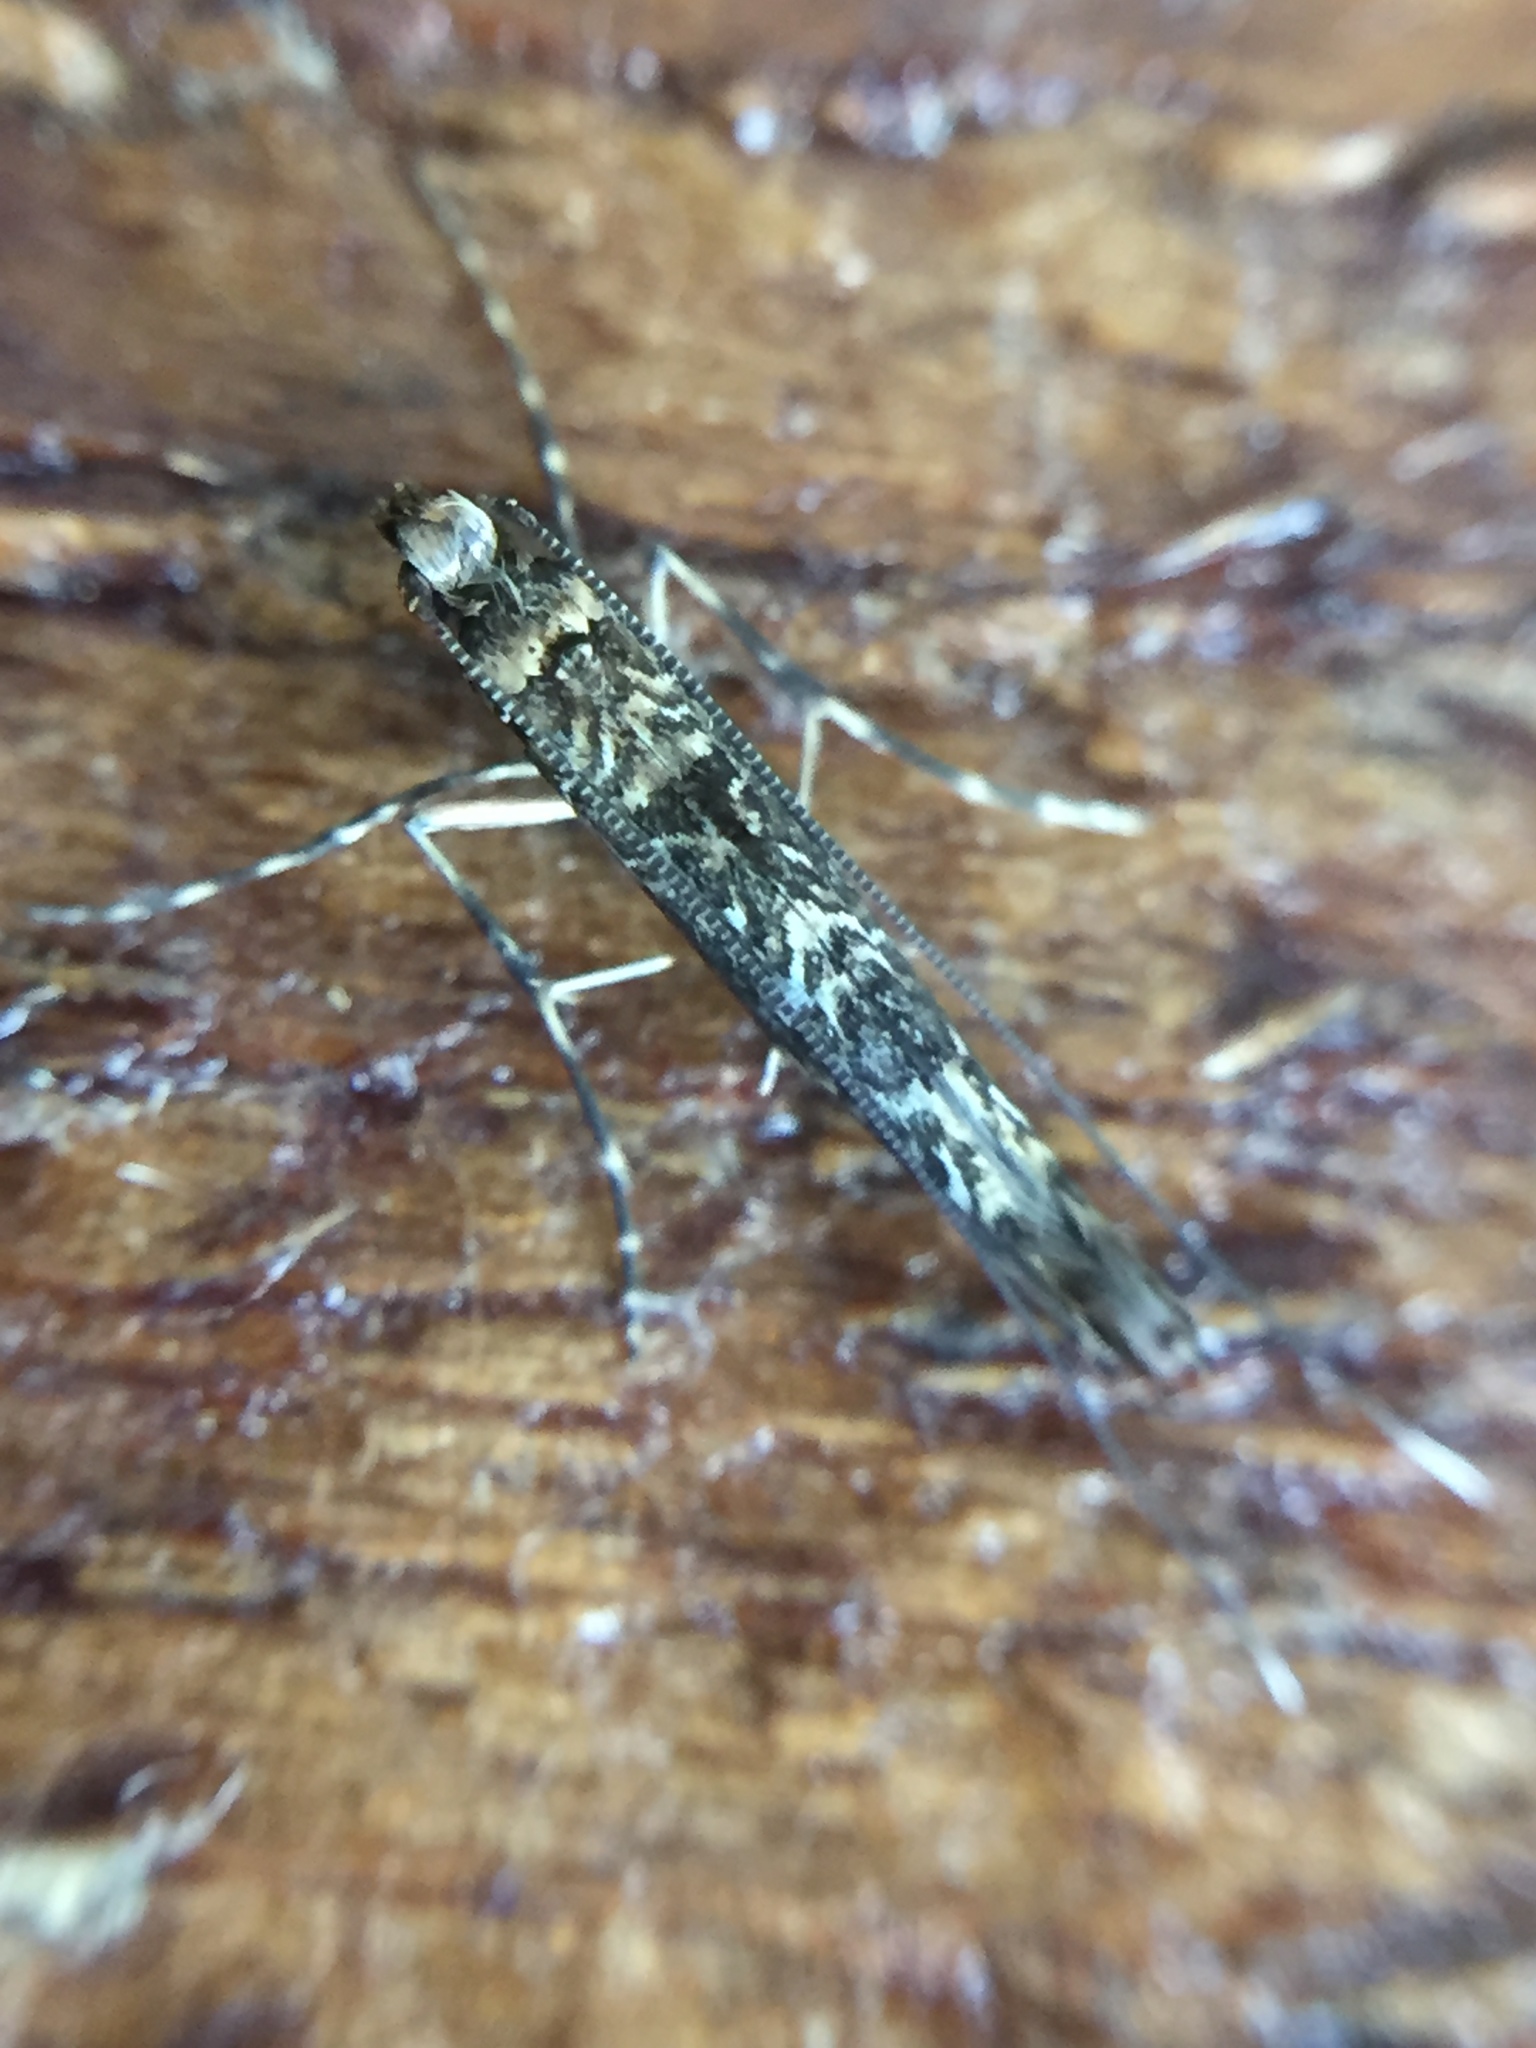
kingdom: Animalia
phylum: Arthropoda
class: Insecta
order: Lepidoptera
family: Gracillariidae
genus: Conopomorpha
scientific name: Conopomorpha cyanospila
